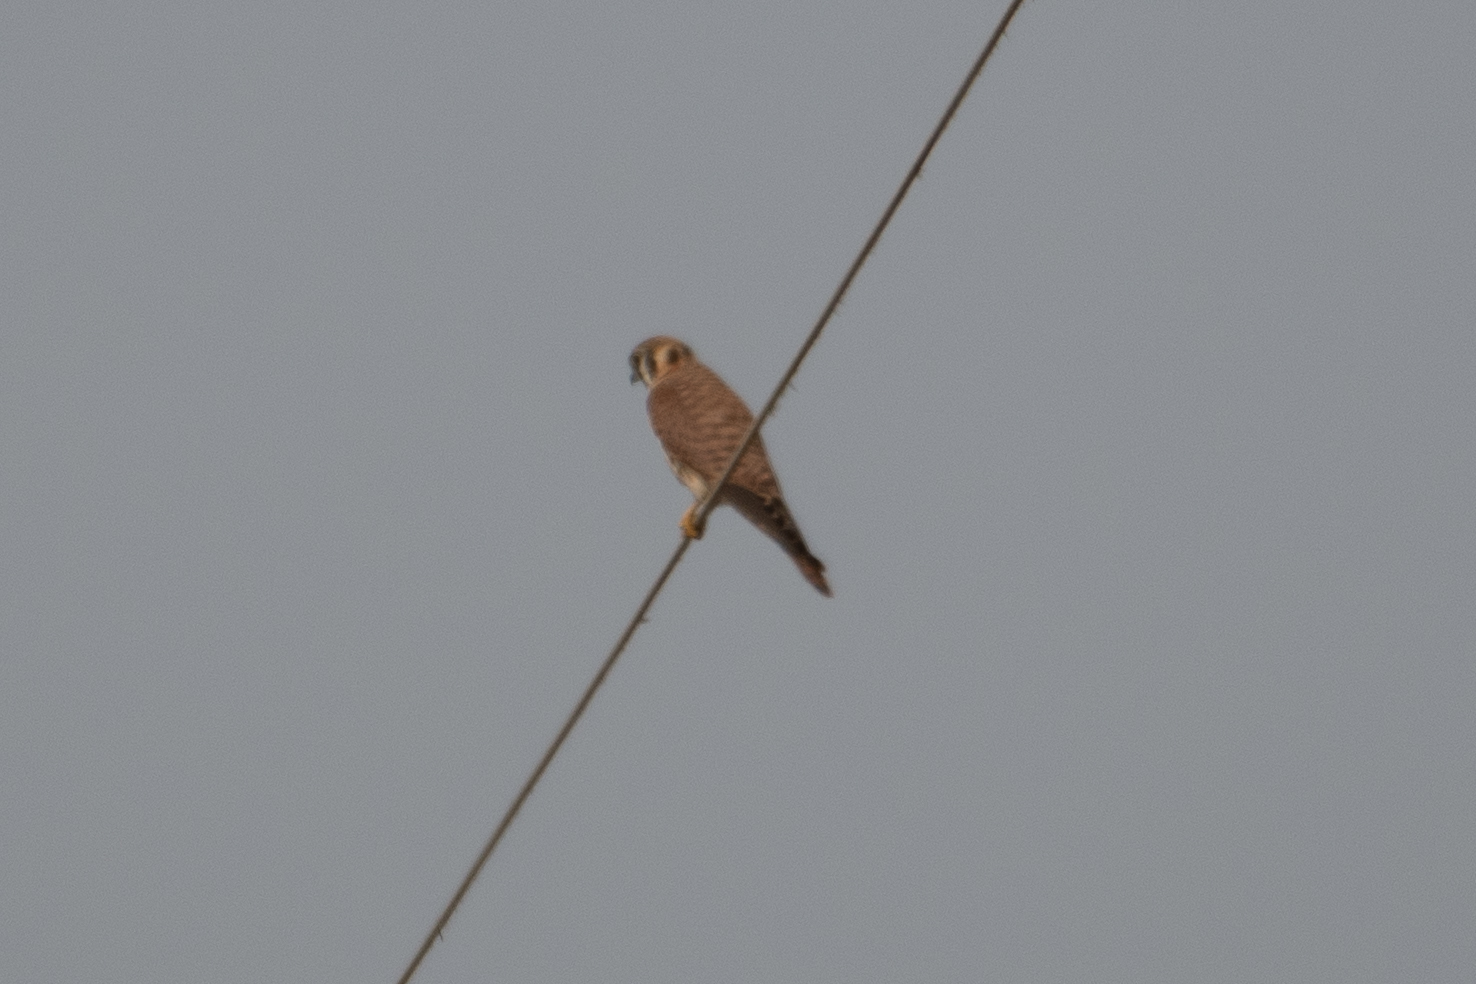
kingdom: Animalia
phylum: Chordata
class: Aves
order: Falconiformes
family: Falconidae
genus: Falco
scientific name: Falco sparverius
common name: American kestrel
